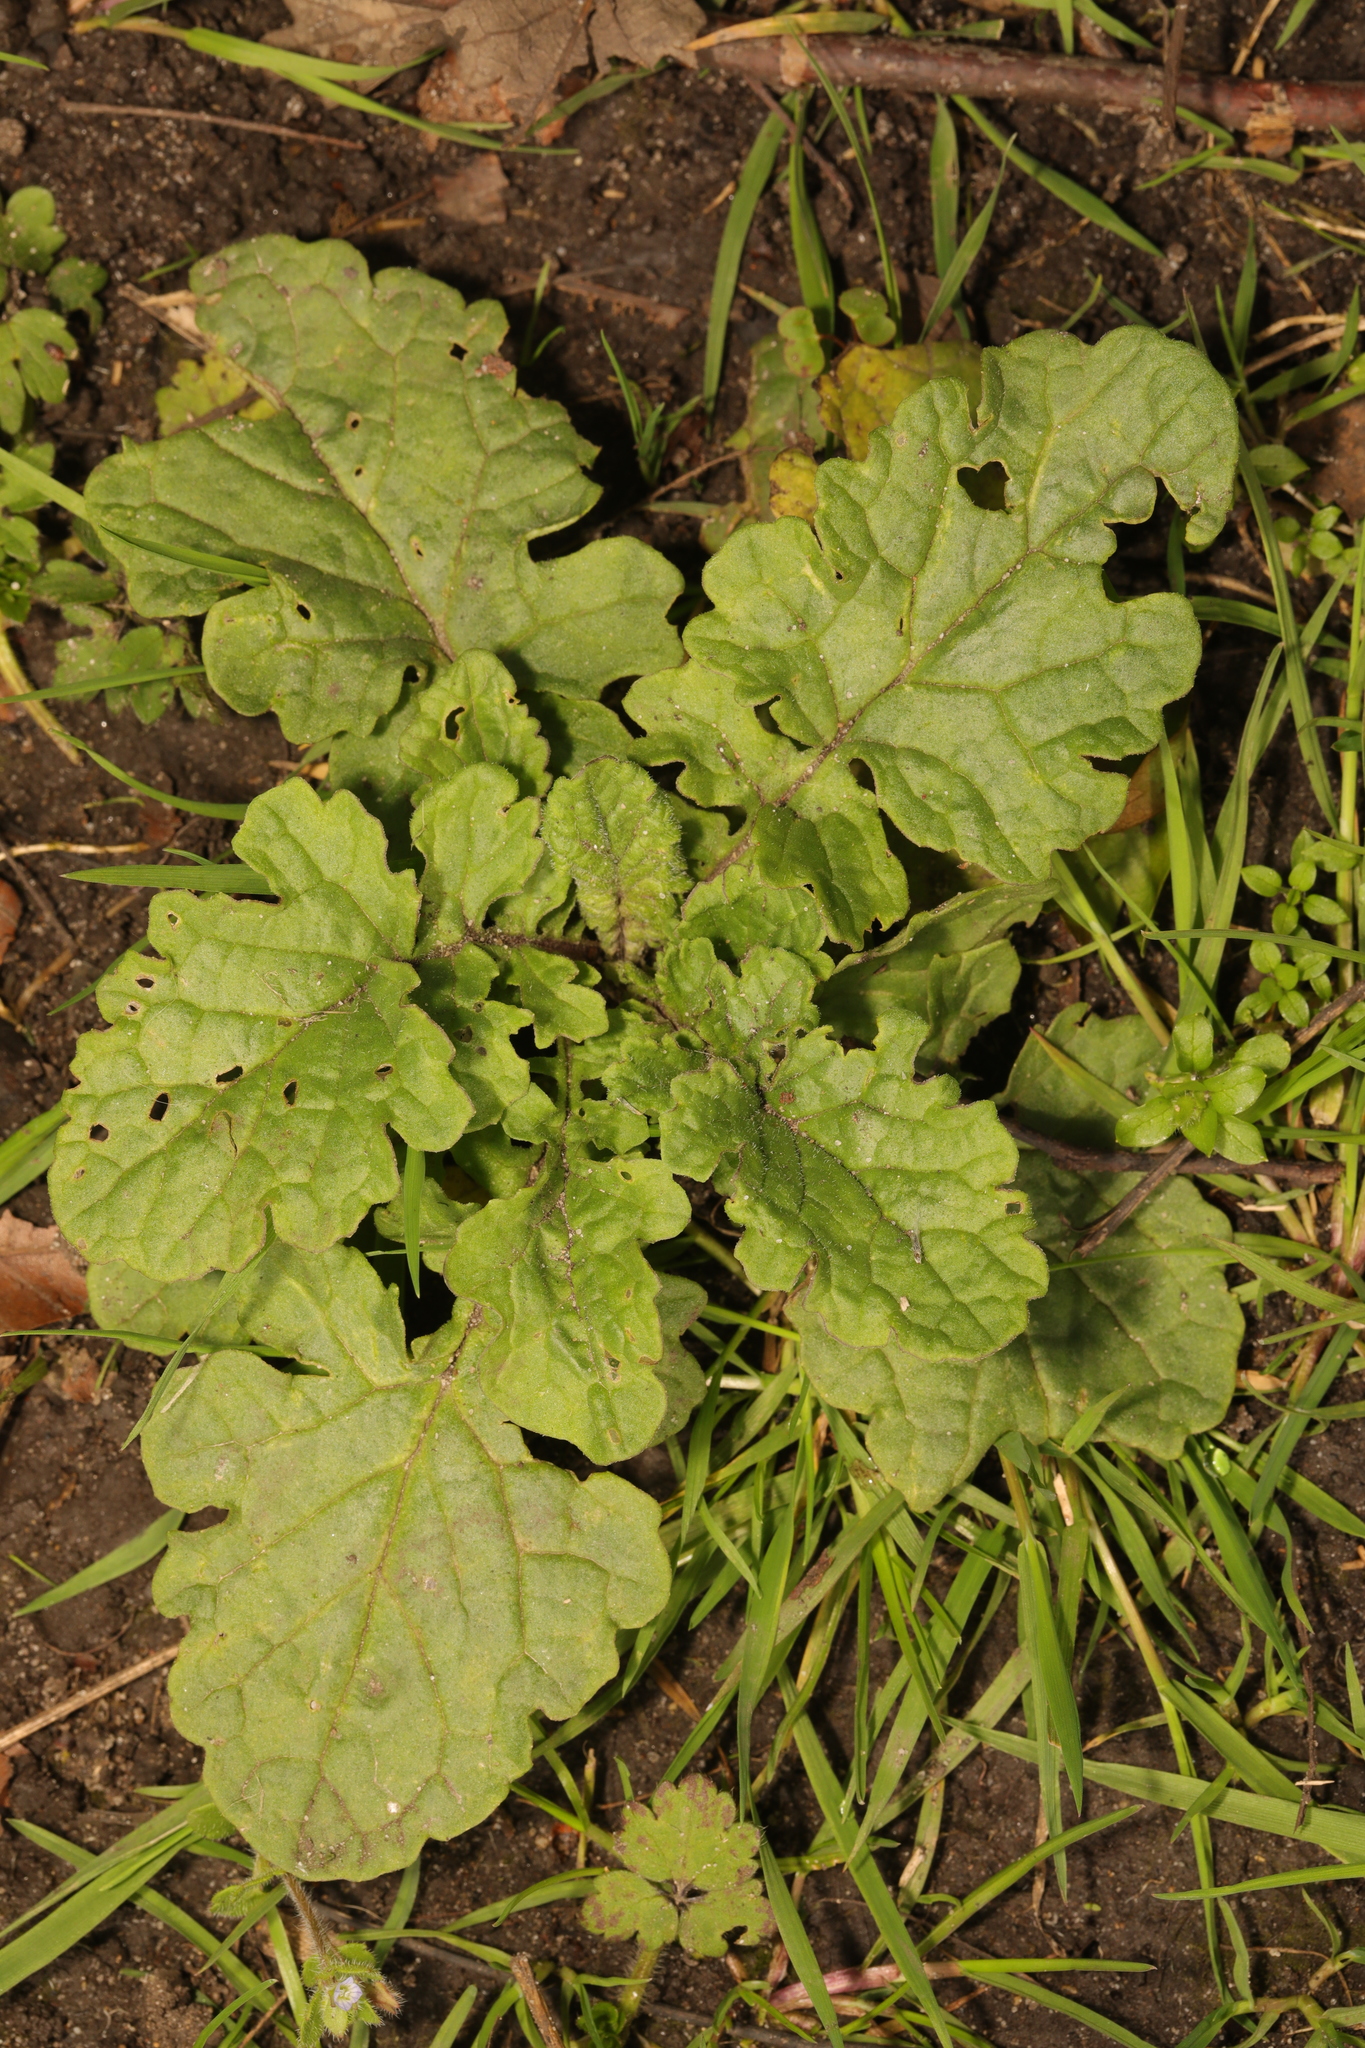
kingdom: Plantae
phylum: Tracheophyta
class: Magnoliopsida
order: Asterales
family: Asteraceae
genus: Jacobaea
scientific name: Jacobaea vulgaris
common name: Stinking willie
